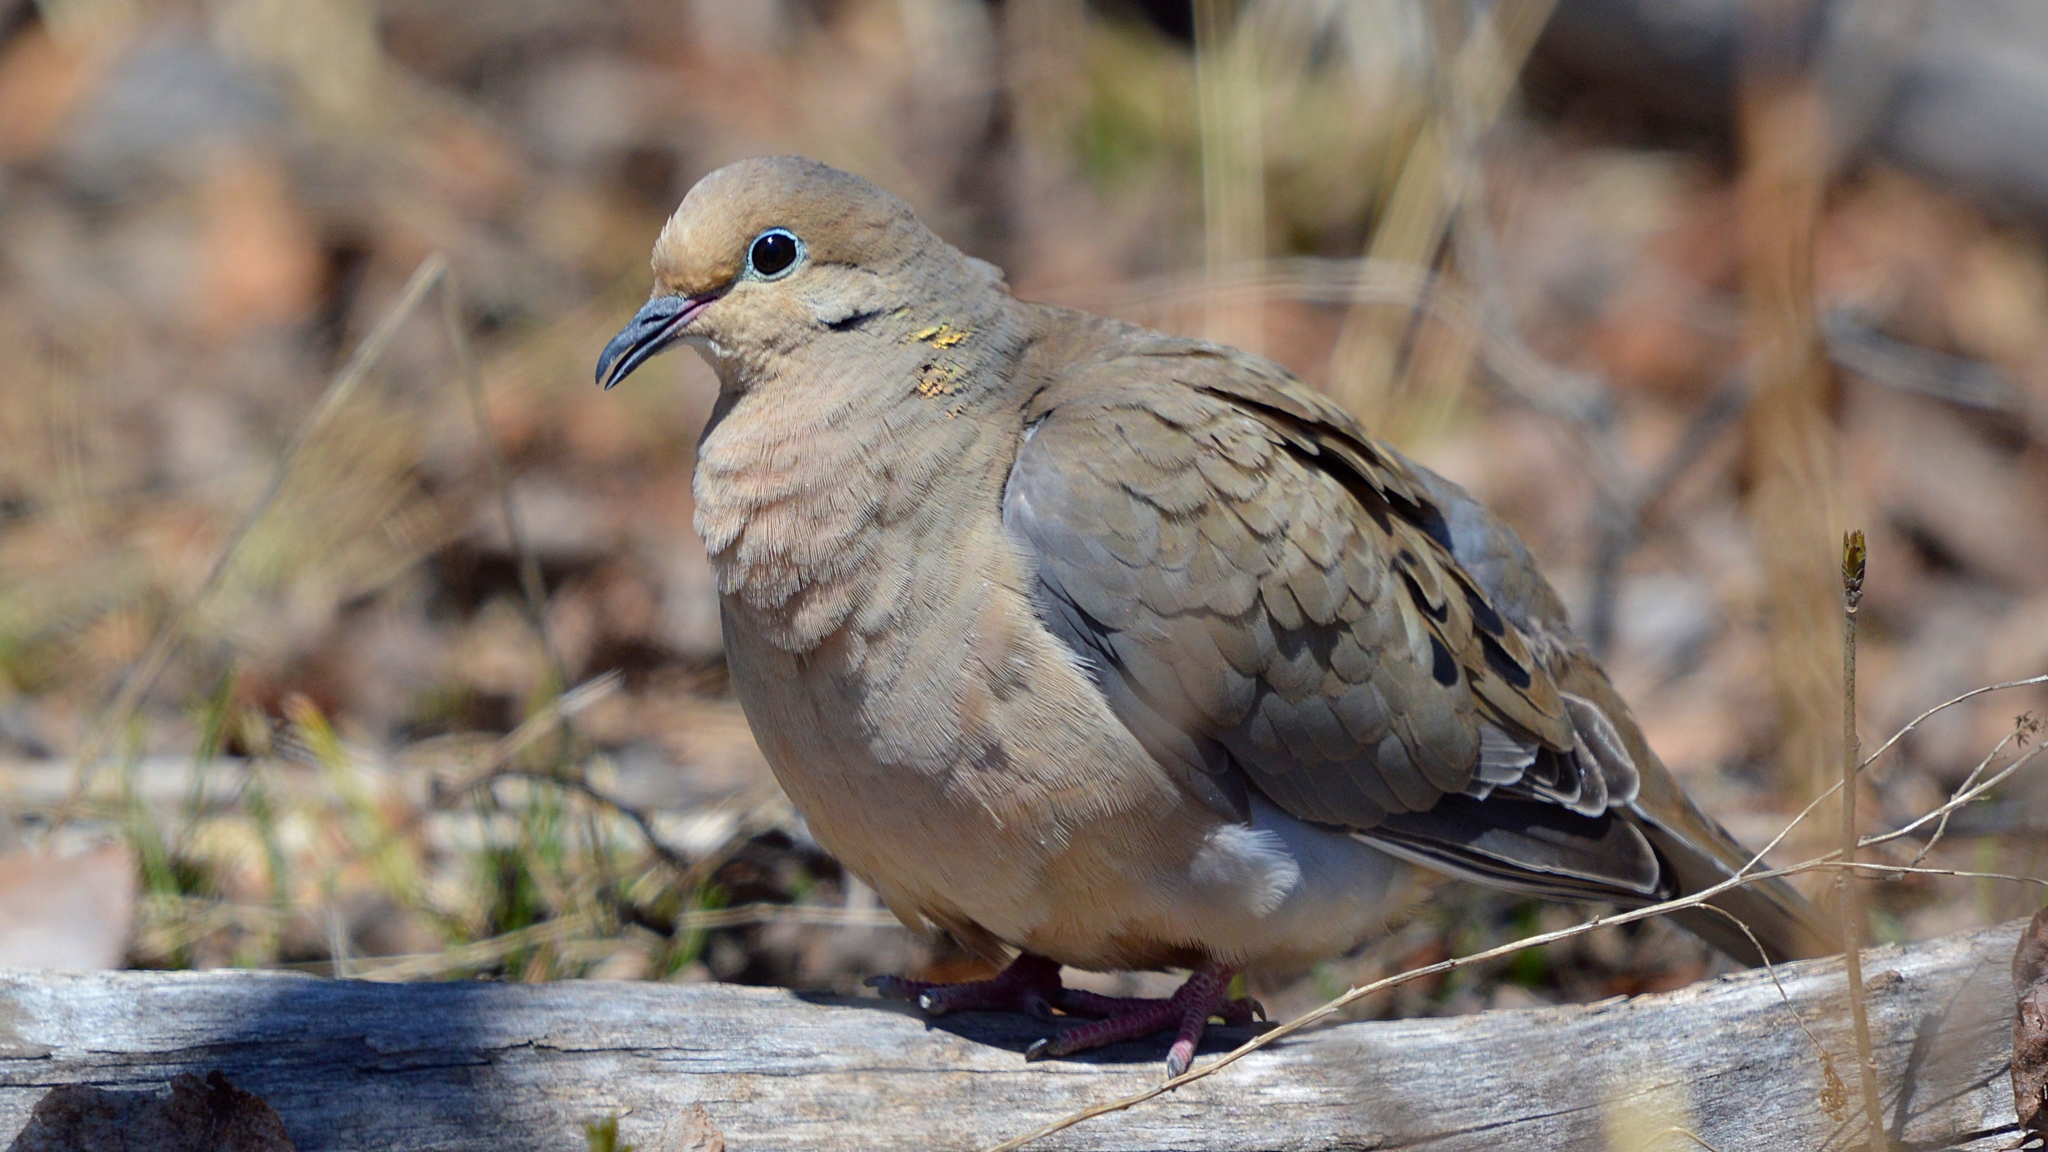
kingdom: Animalia
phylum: Chordata
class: Aves
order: Columbiformes
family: Columbidae
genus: Zenaida
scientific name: Zenaida macroura
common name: Mourning dove
